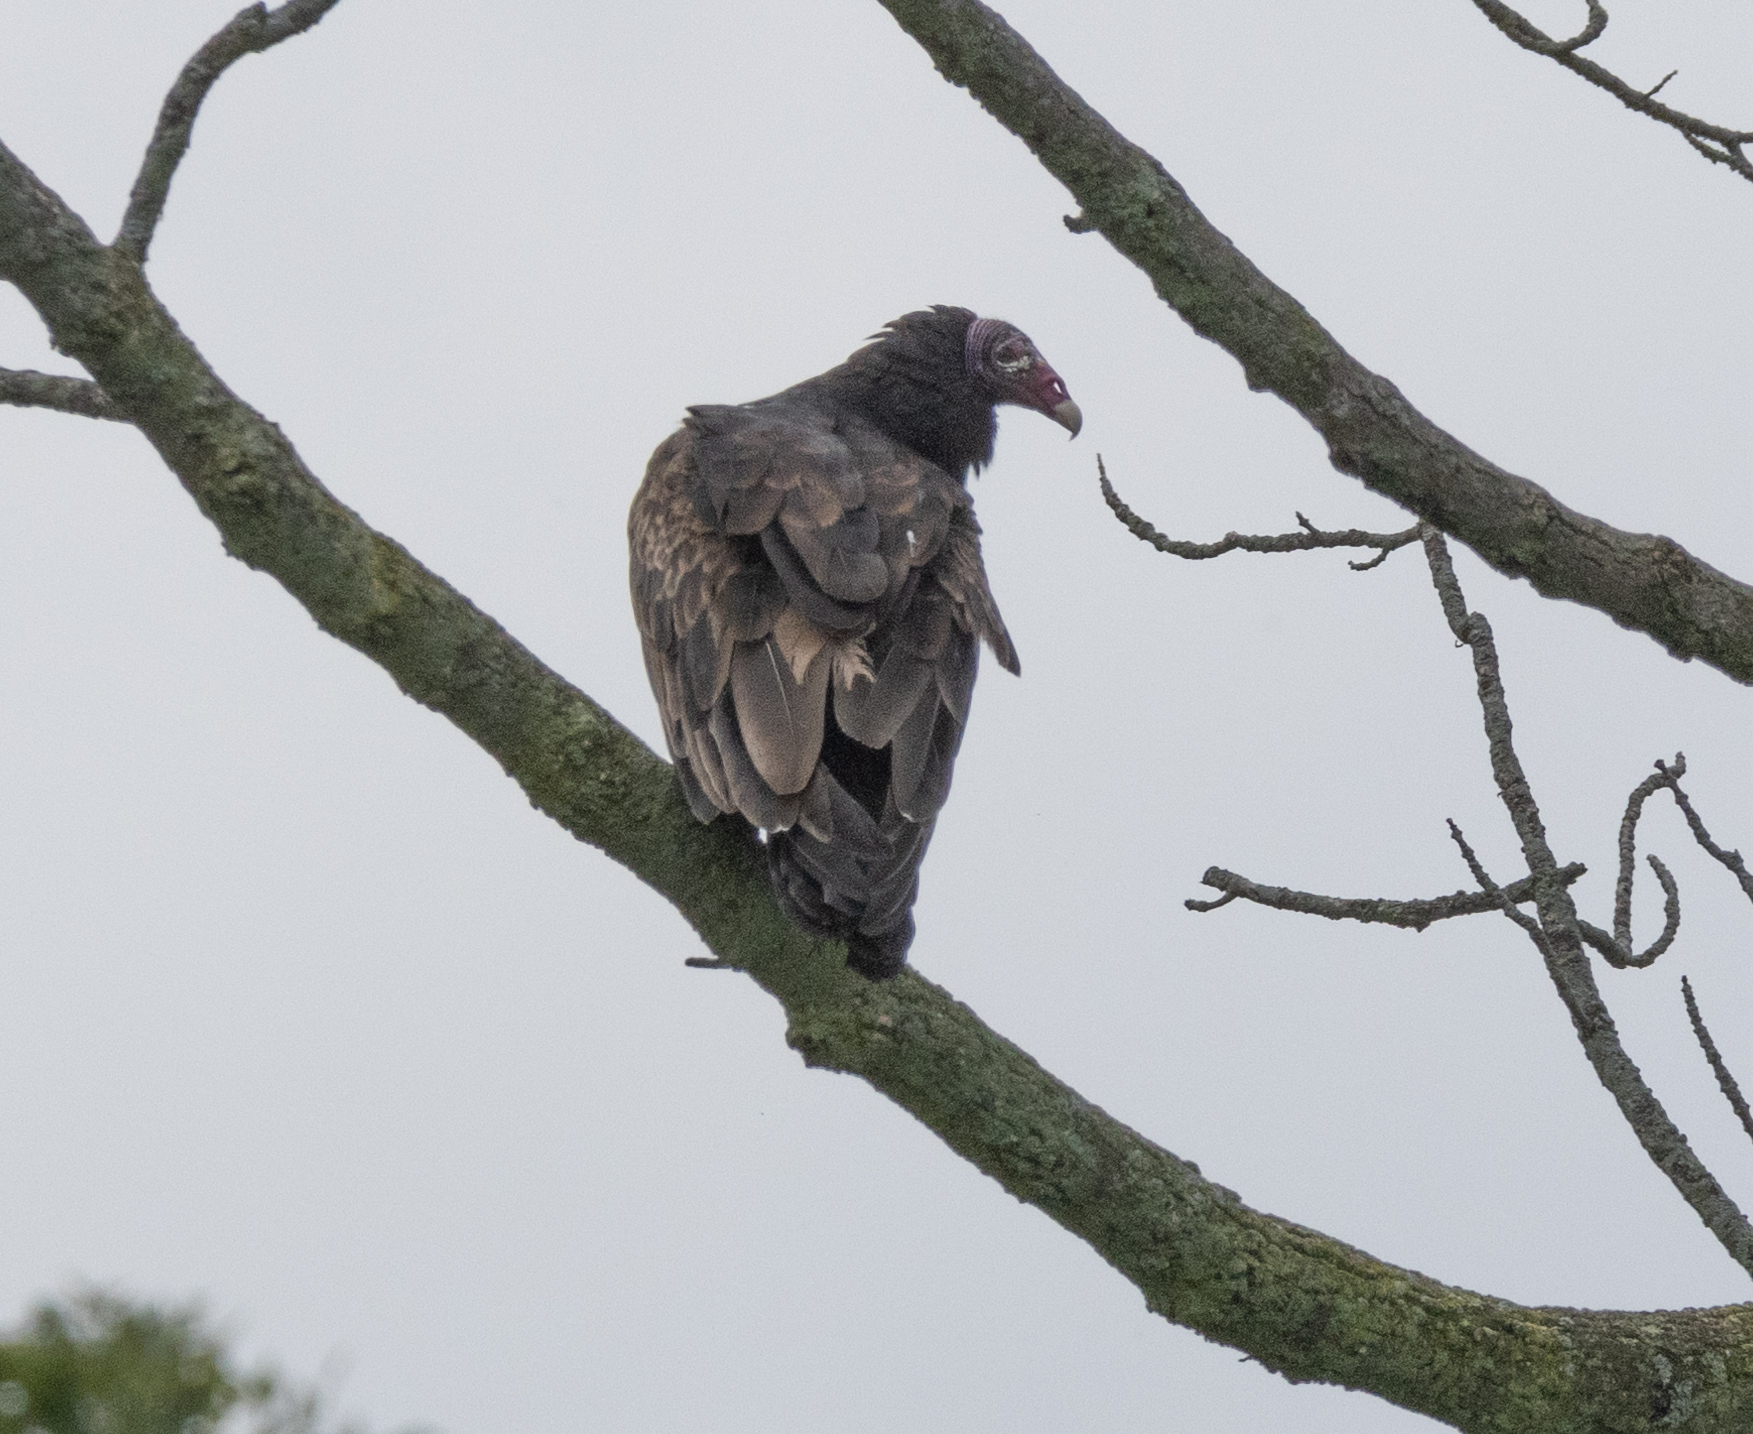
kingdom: Animalia
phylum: Chordata
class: Aves
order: Accipitriformes
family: Cathartidae
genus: Cathartes
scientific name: Cathartes aura
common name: Turkey vulture
